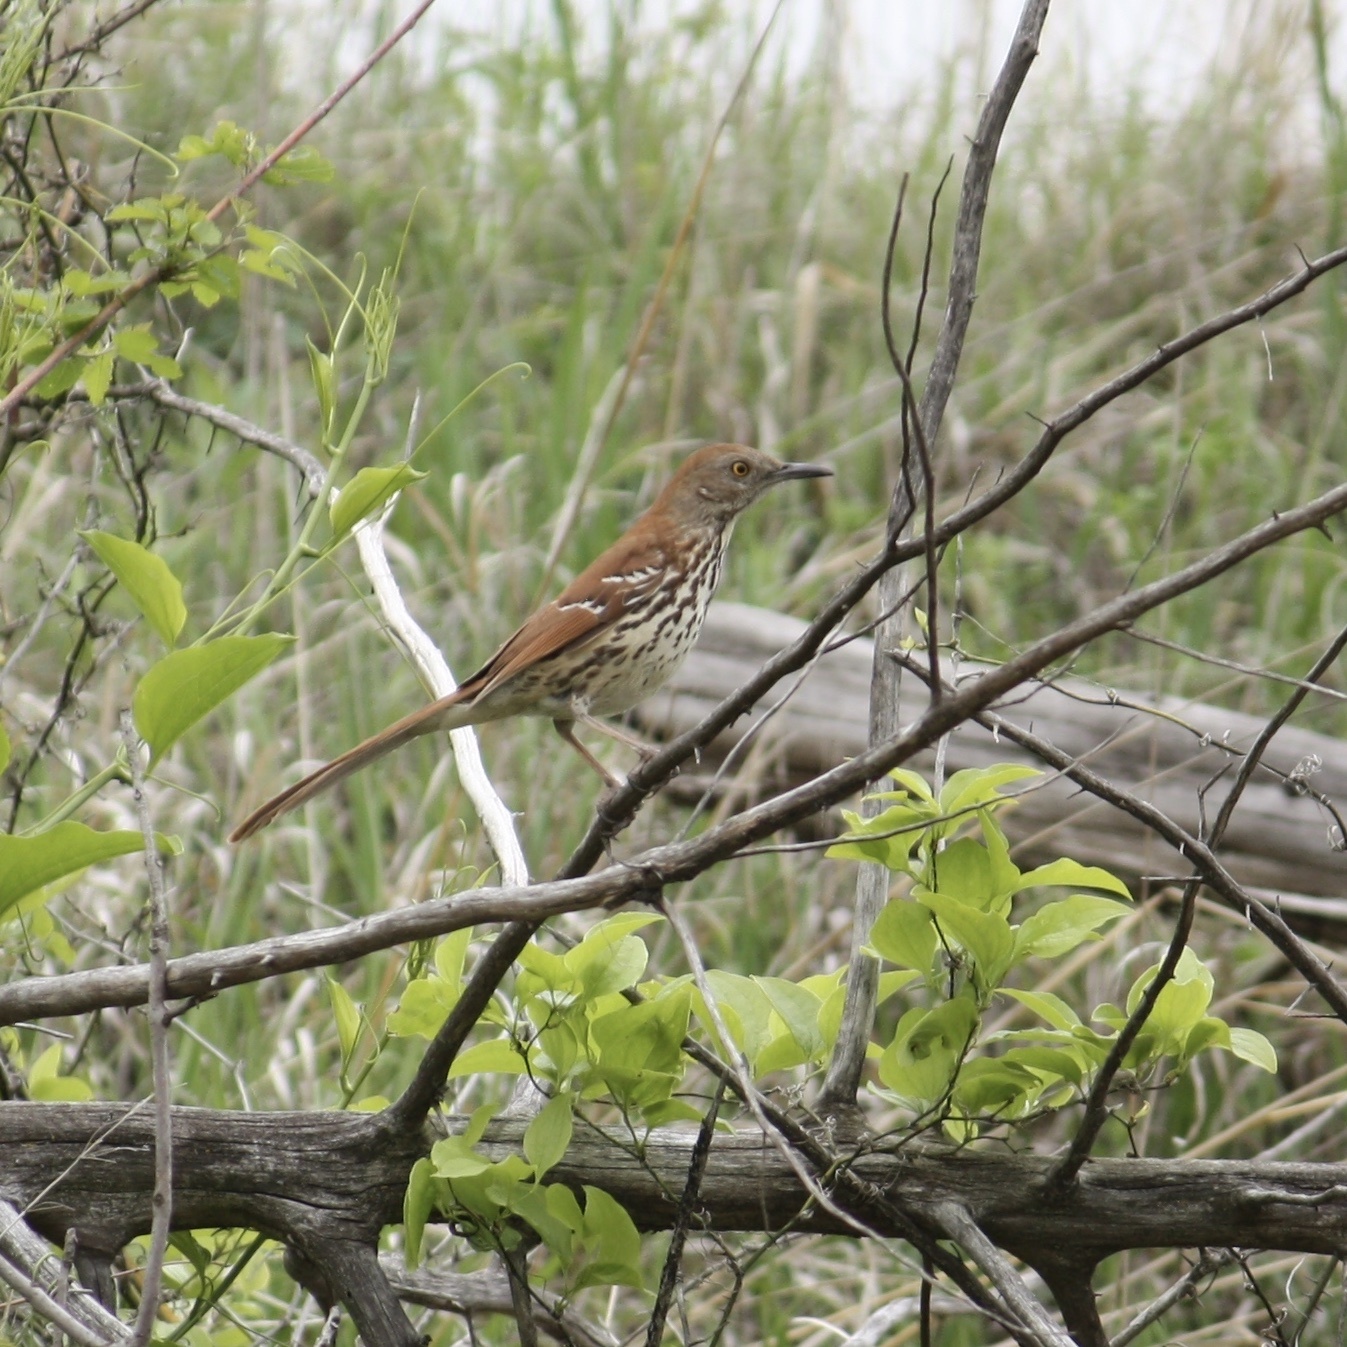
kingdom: Animalia
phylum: Chordata
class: Aves
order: Passeriformes
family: Mimidae
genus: Toxostoma
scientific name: Toxostoma rufum
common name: Brown thrasher
